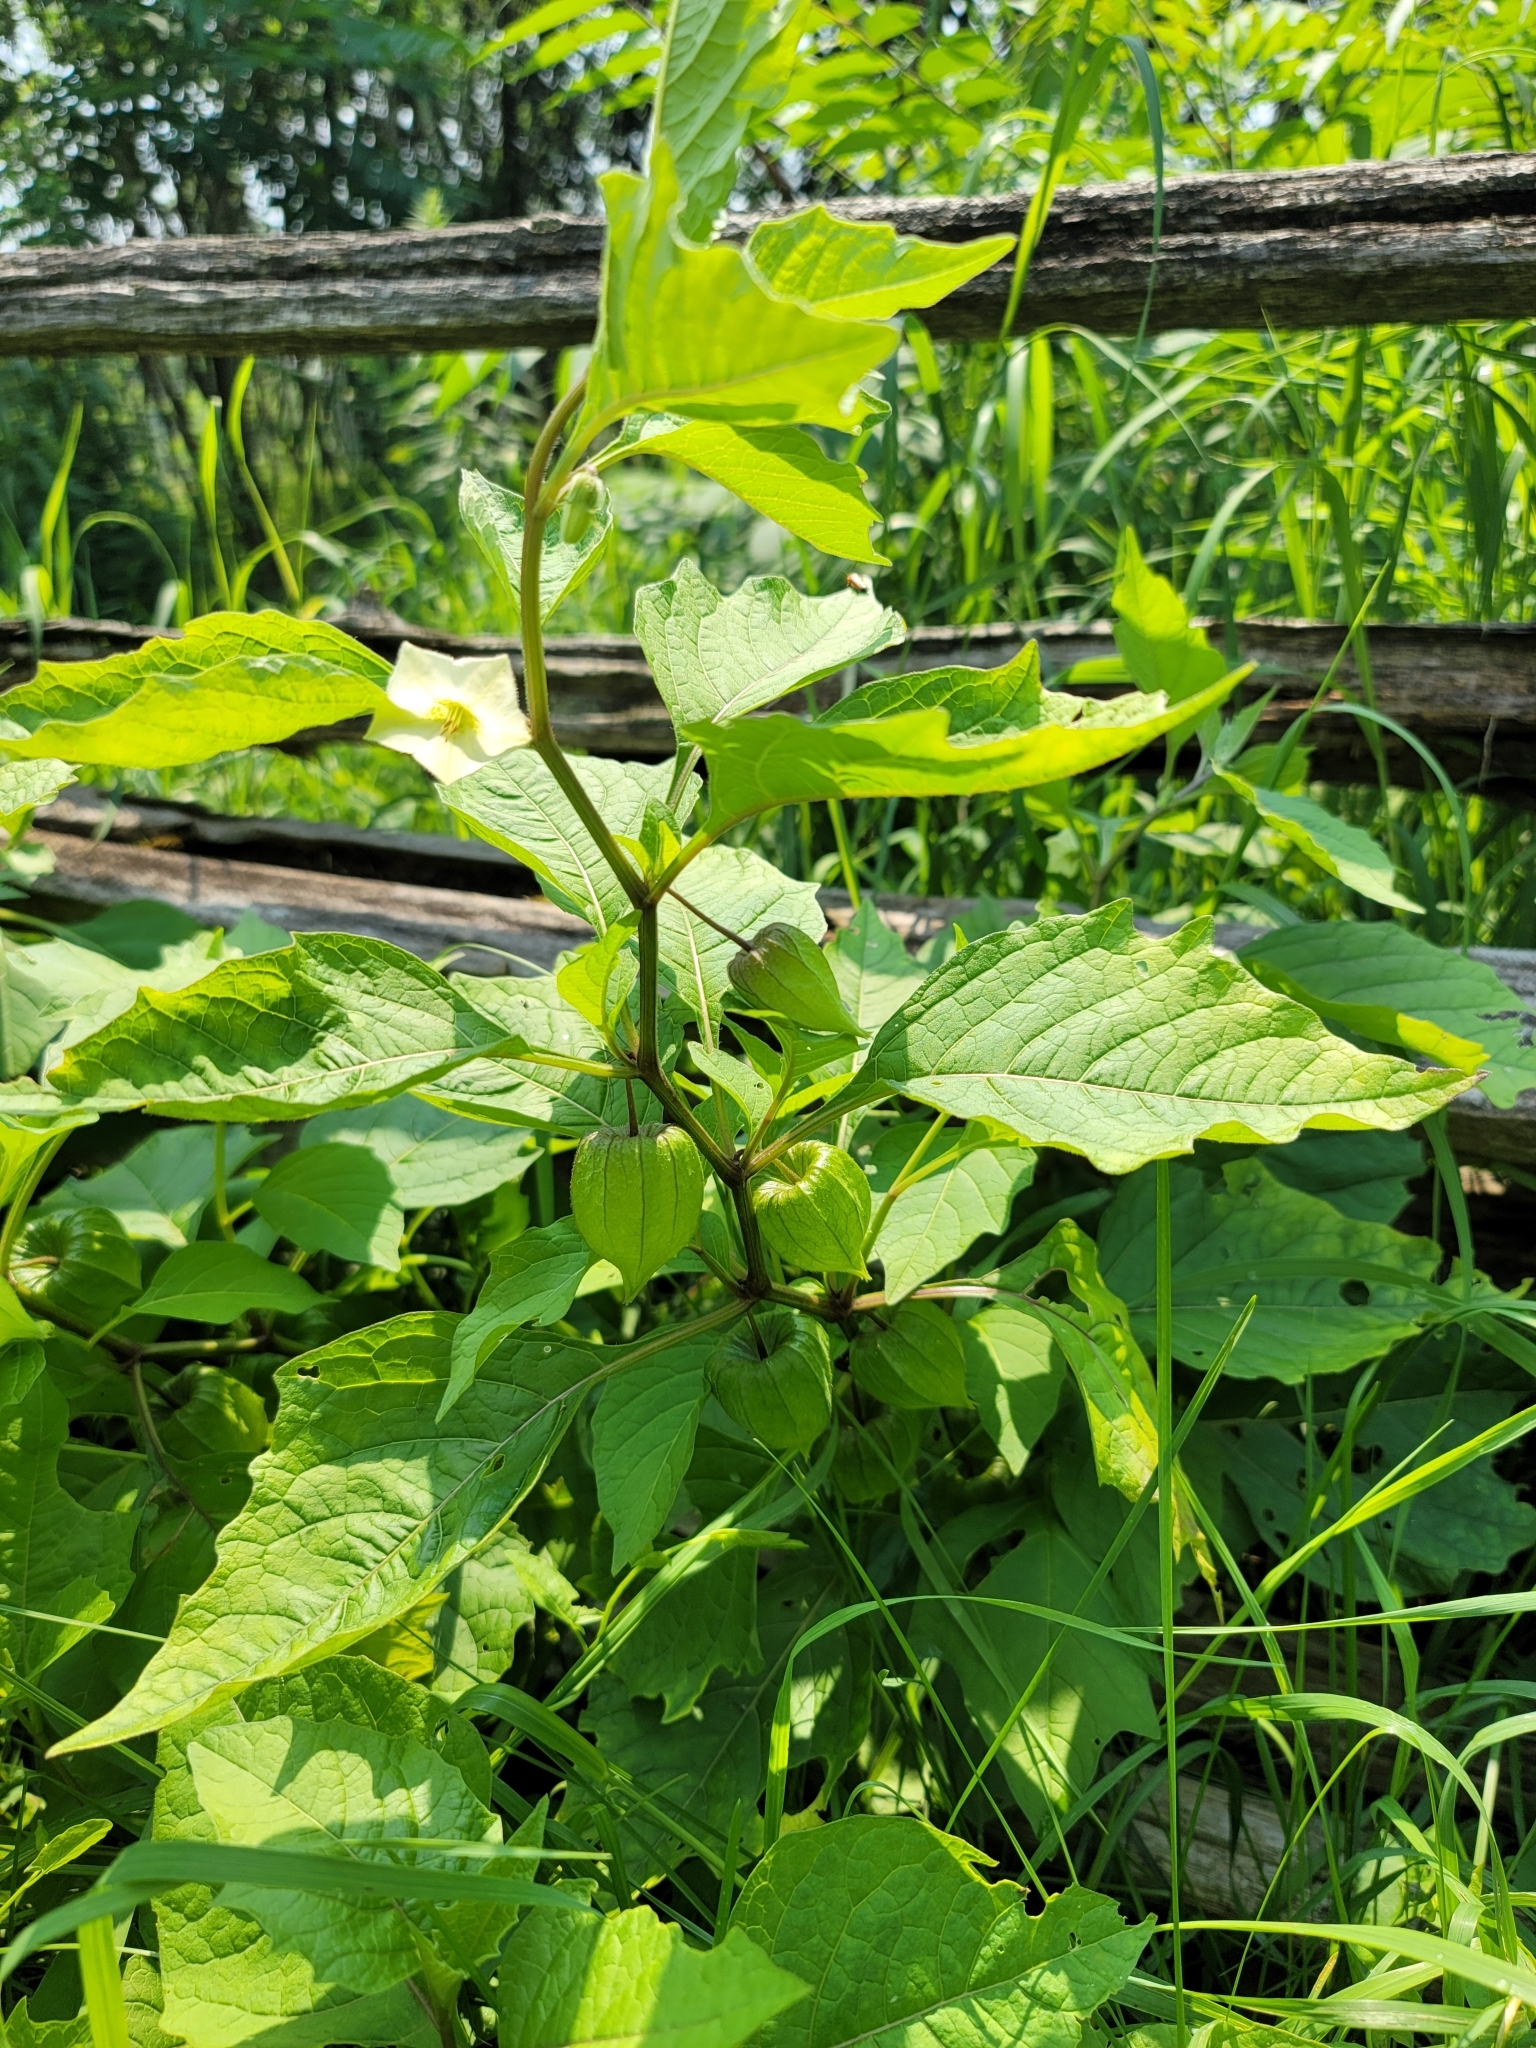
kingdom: Plantae
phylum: Tracheophyta
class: Magnoliopsida
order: Solanales
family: Solanaceae
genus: Alkekengi
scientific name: Alkekengi officinarum
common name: Japanese-lantern
